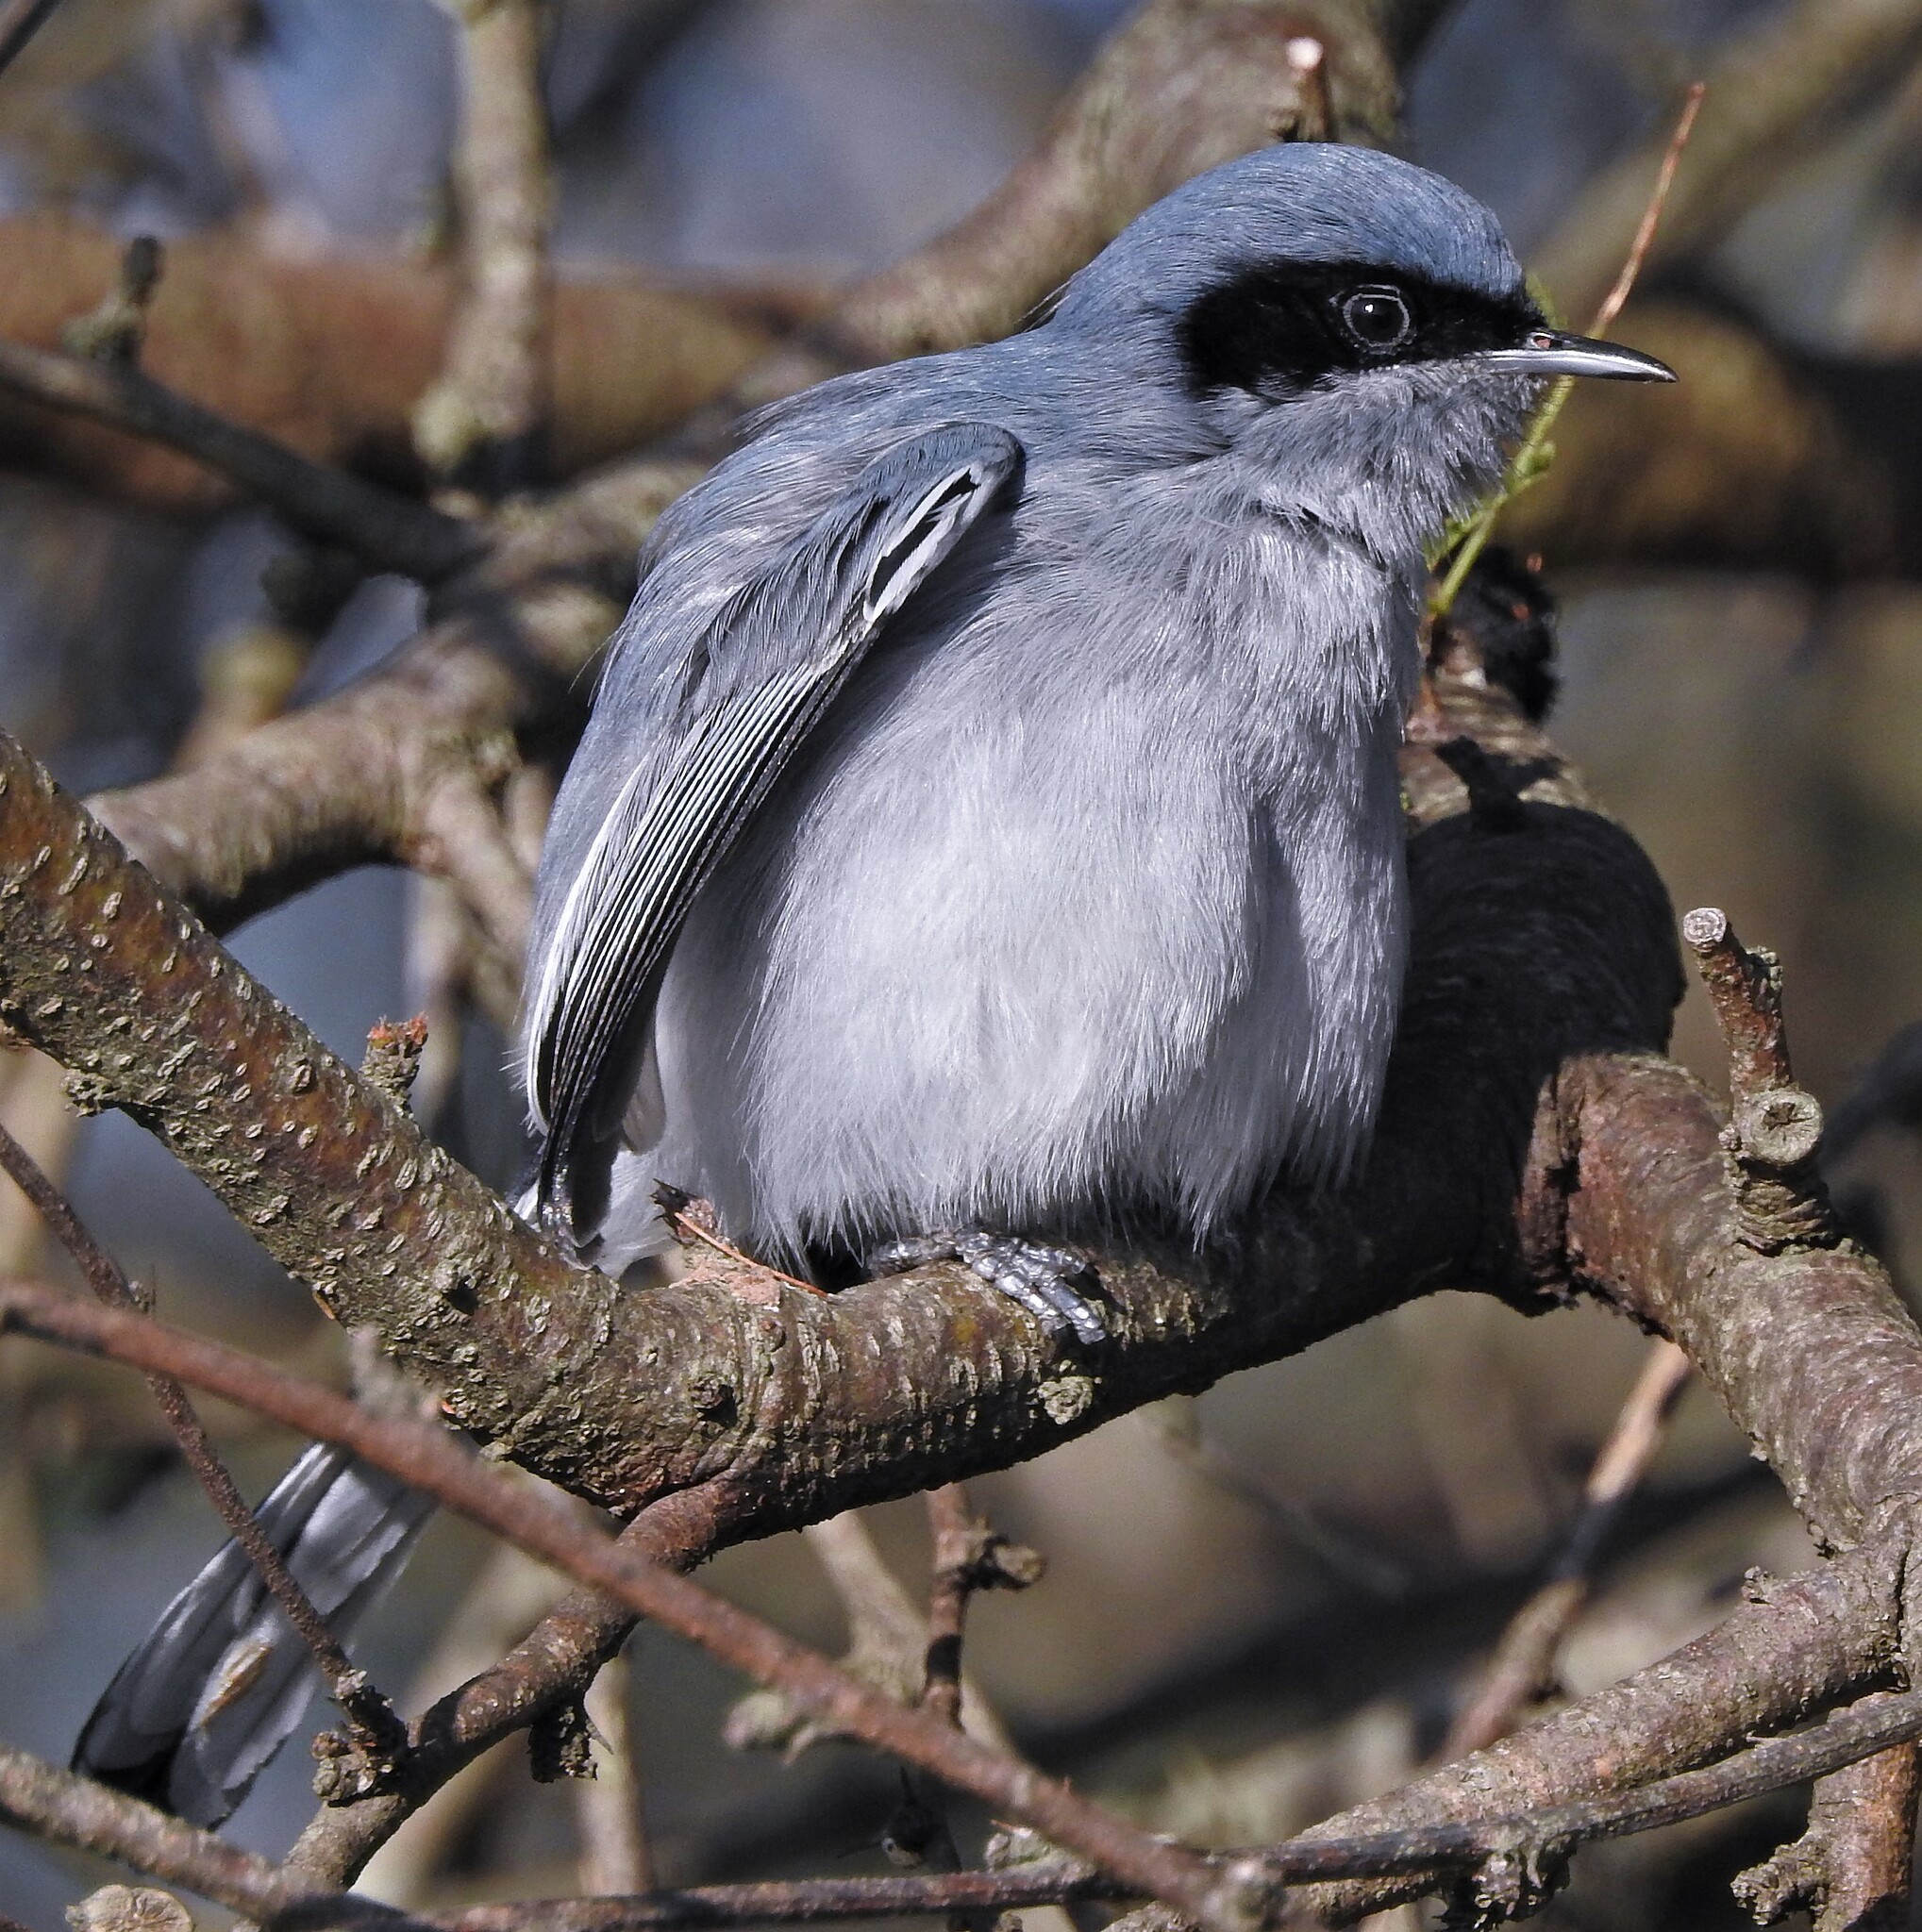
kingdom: Animalia
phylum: Chordata
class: Aves
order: Passeriformes
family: Polioptilidae
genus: Polioptila
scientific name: Polioptila dumicola
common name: Masked gnatcatcher
